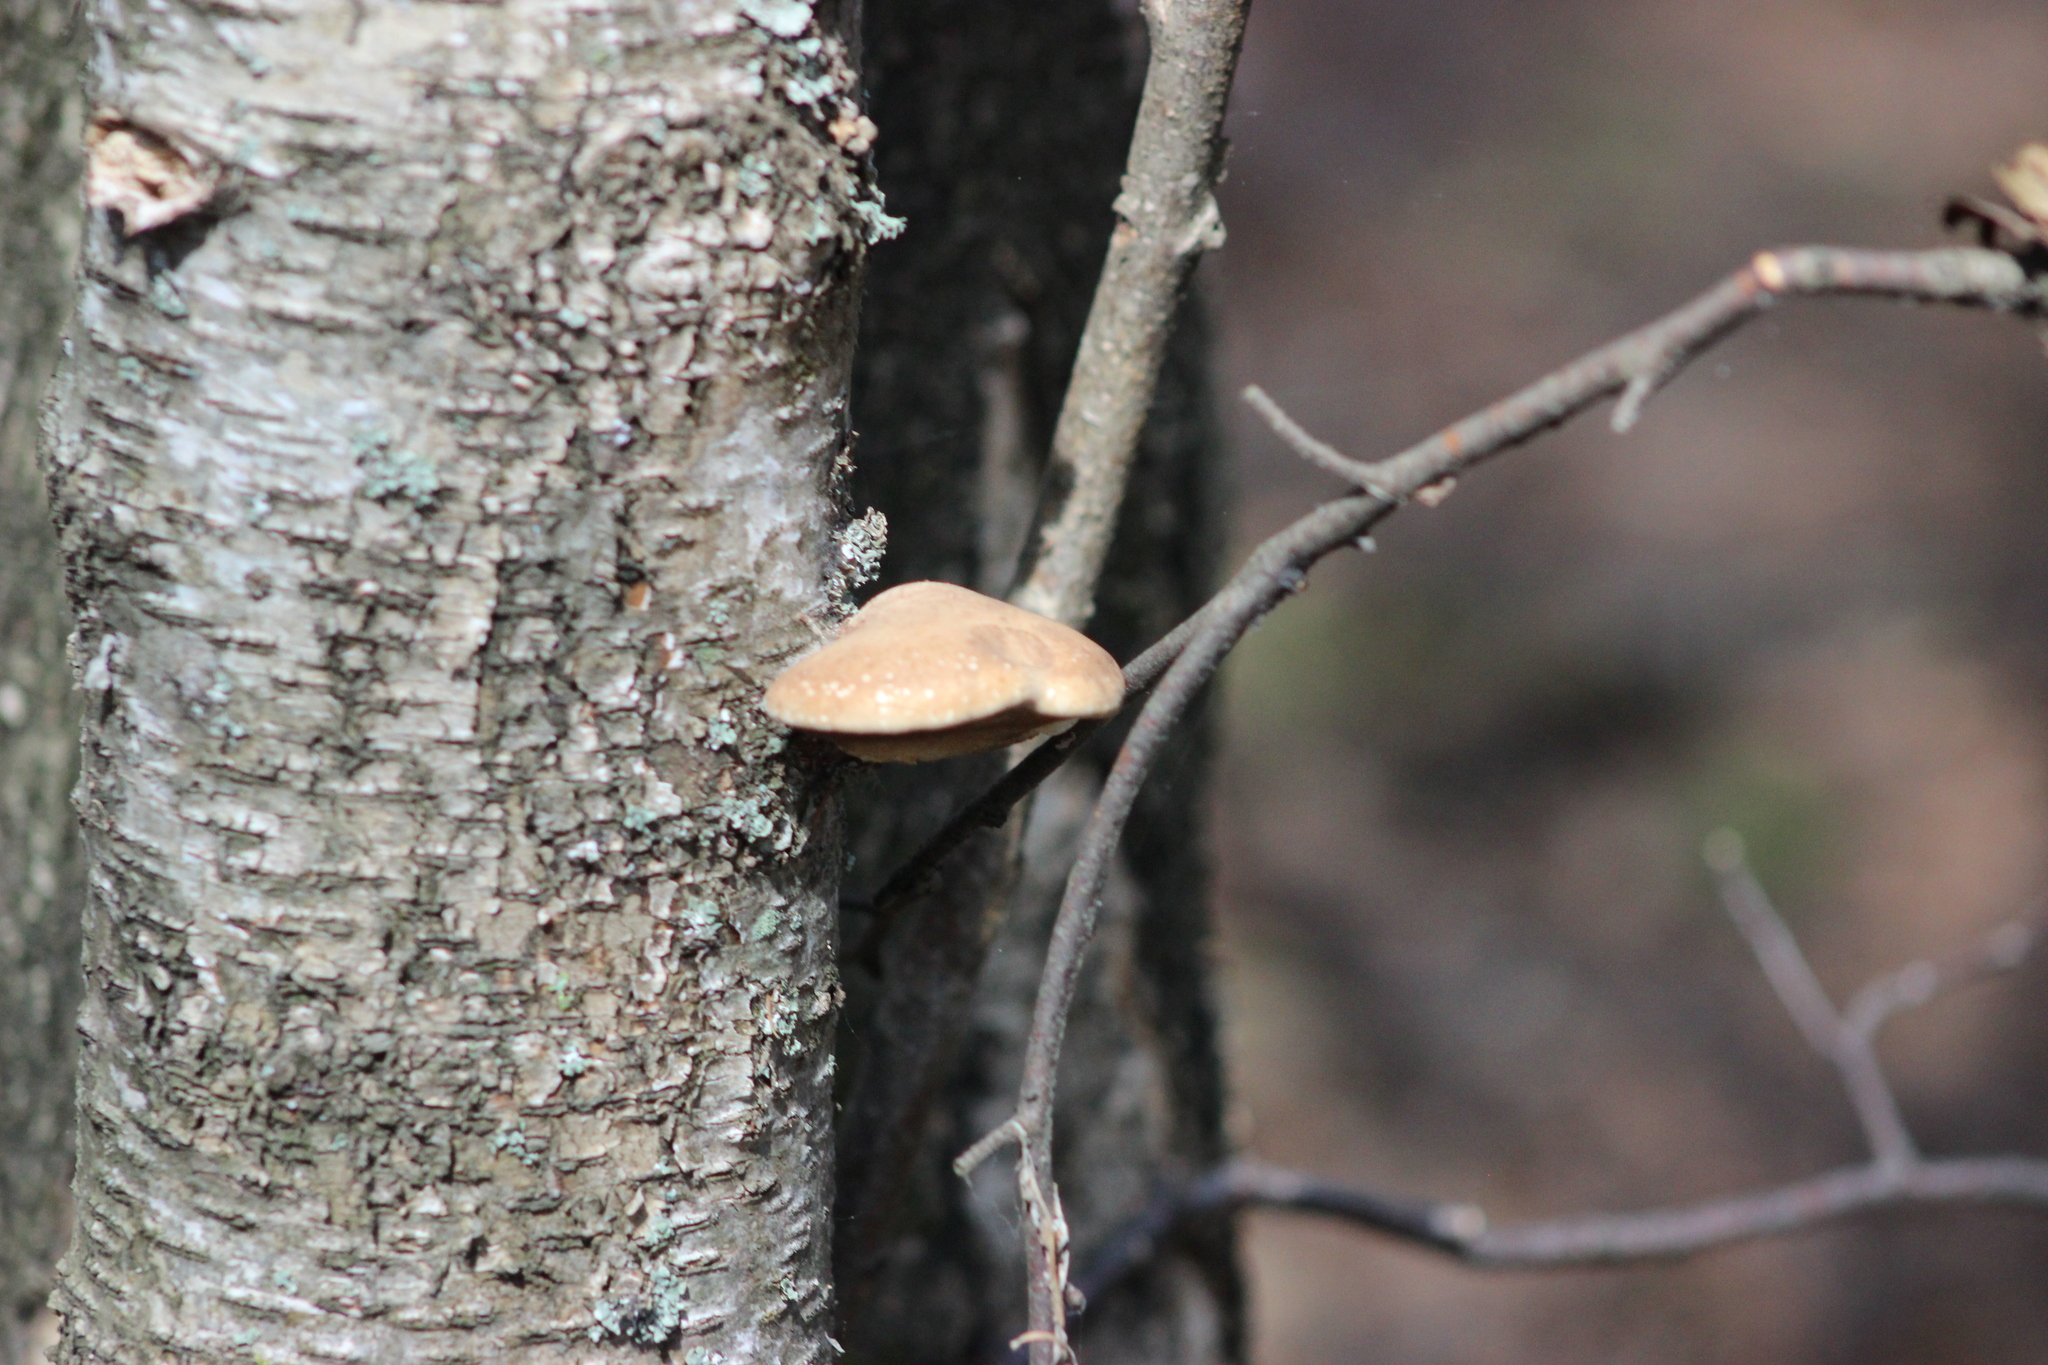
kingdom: Fungi
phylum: Basidiomycota
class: Agaricomycetes
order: Polyporales
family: Fomitopsidaceae
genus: Fomitopsis
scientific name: Fomitopsis betulina
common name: Birch polypore
